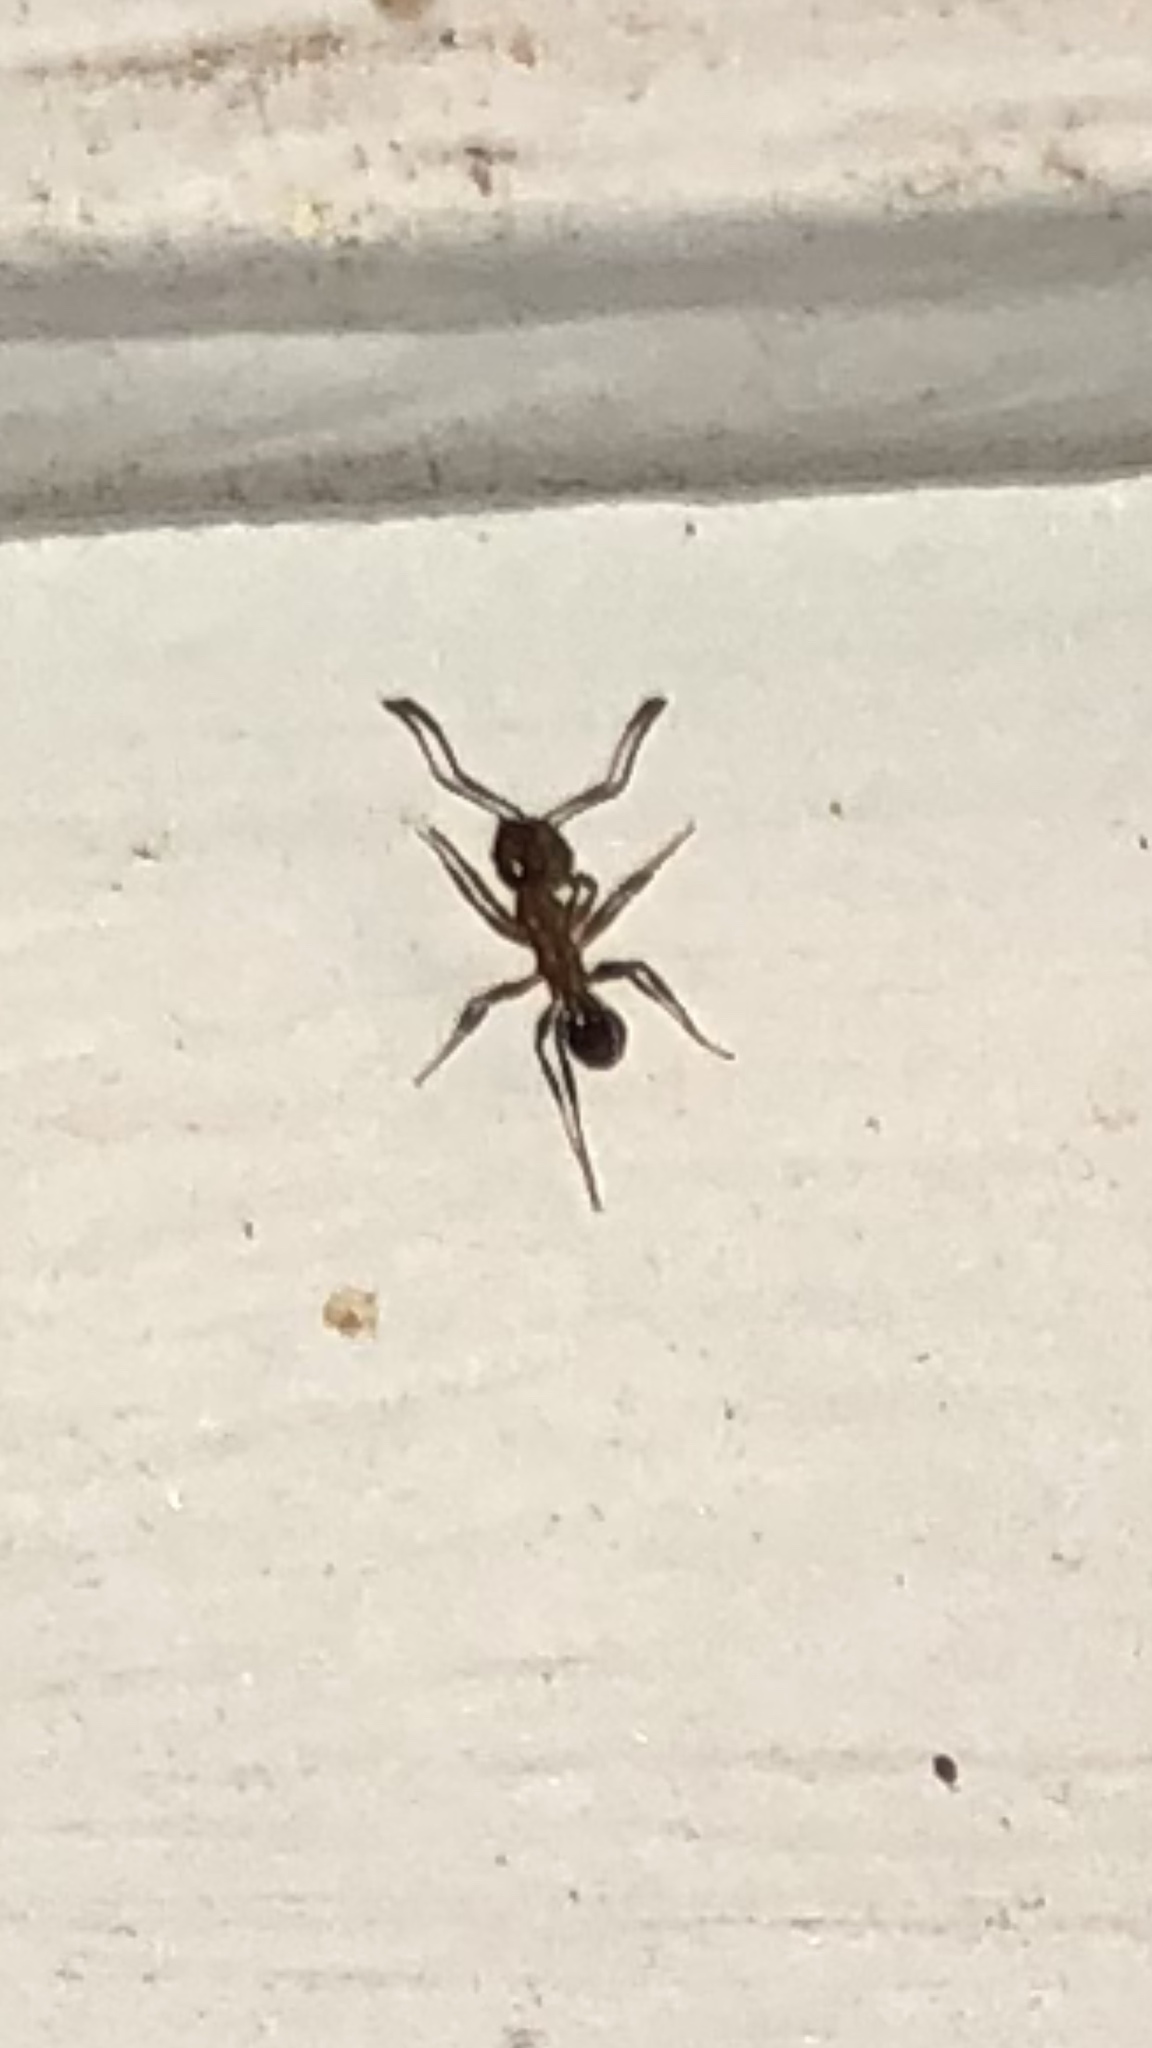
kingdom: Animalia
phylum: Arthropoda
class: Insecta
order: Hymenoptera
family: Formicidae
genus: Pheidole
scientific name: Pheidole dentata
